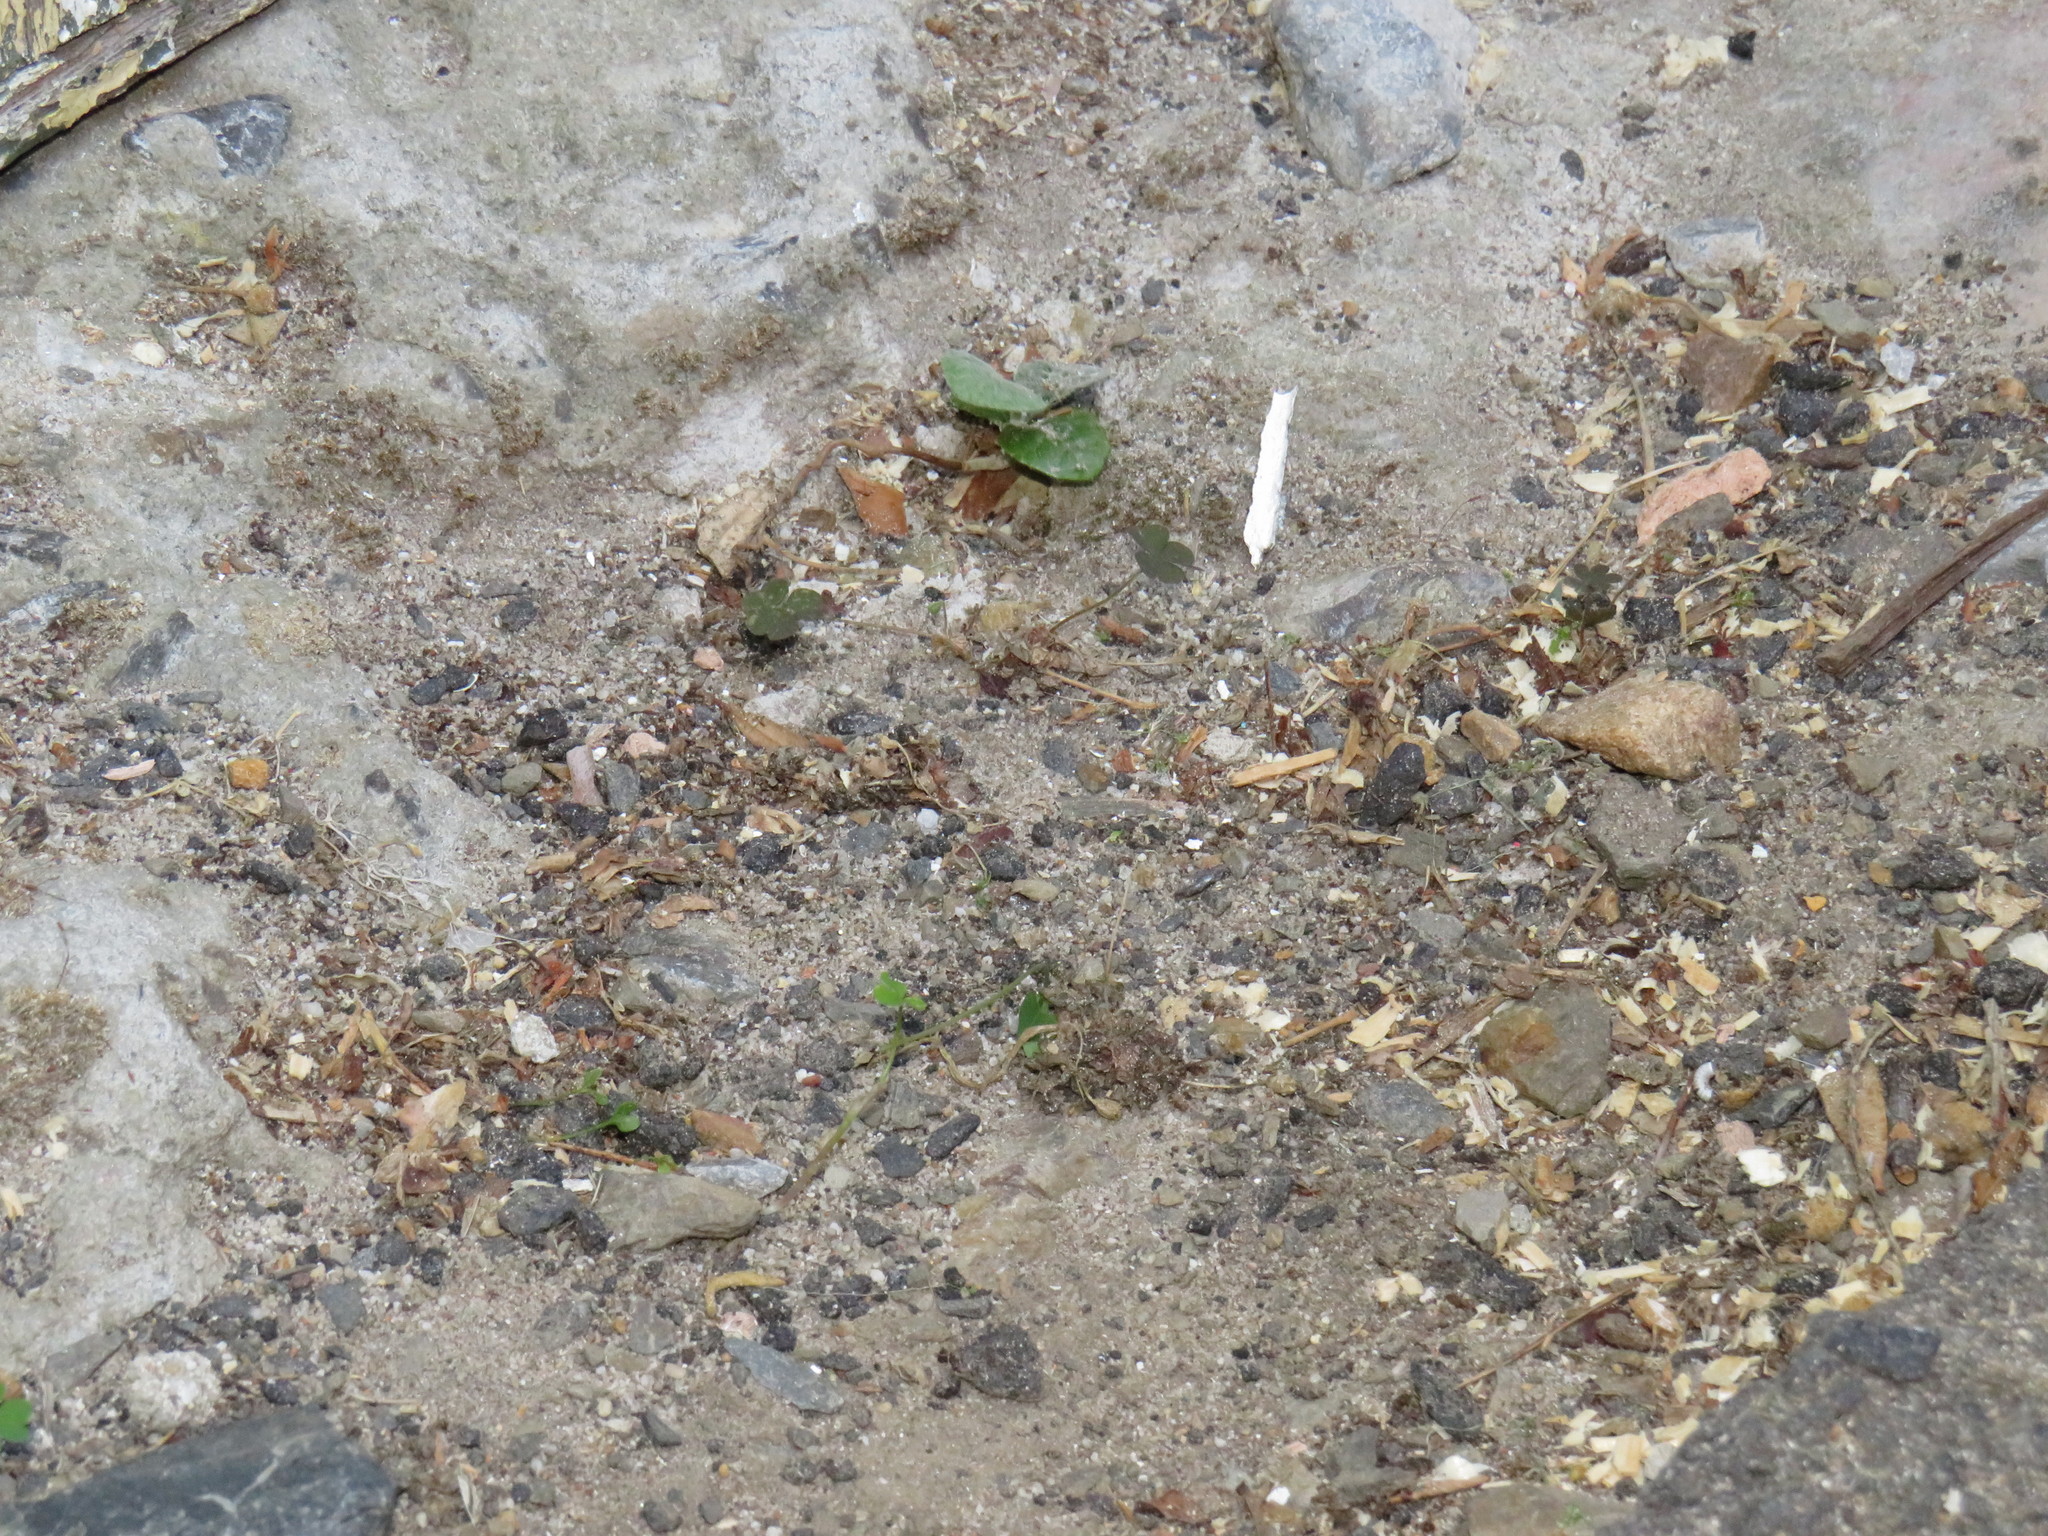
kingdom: Plantae
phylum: Tracheophyta
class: Magnoliopsida
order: Oxalidales
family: Oxalidaceae
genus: Oxalis
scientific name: Oxalis corniculata
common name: Procumbent yellow-sorrel
